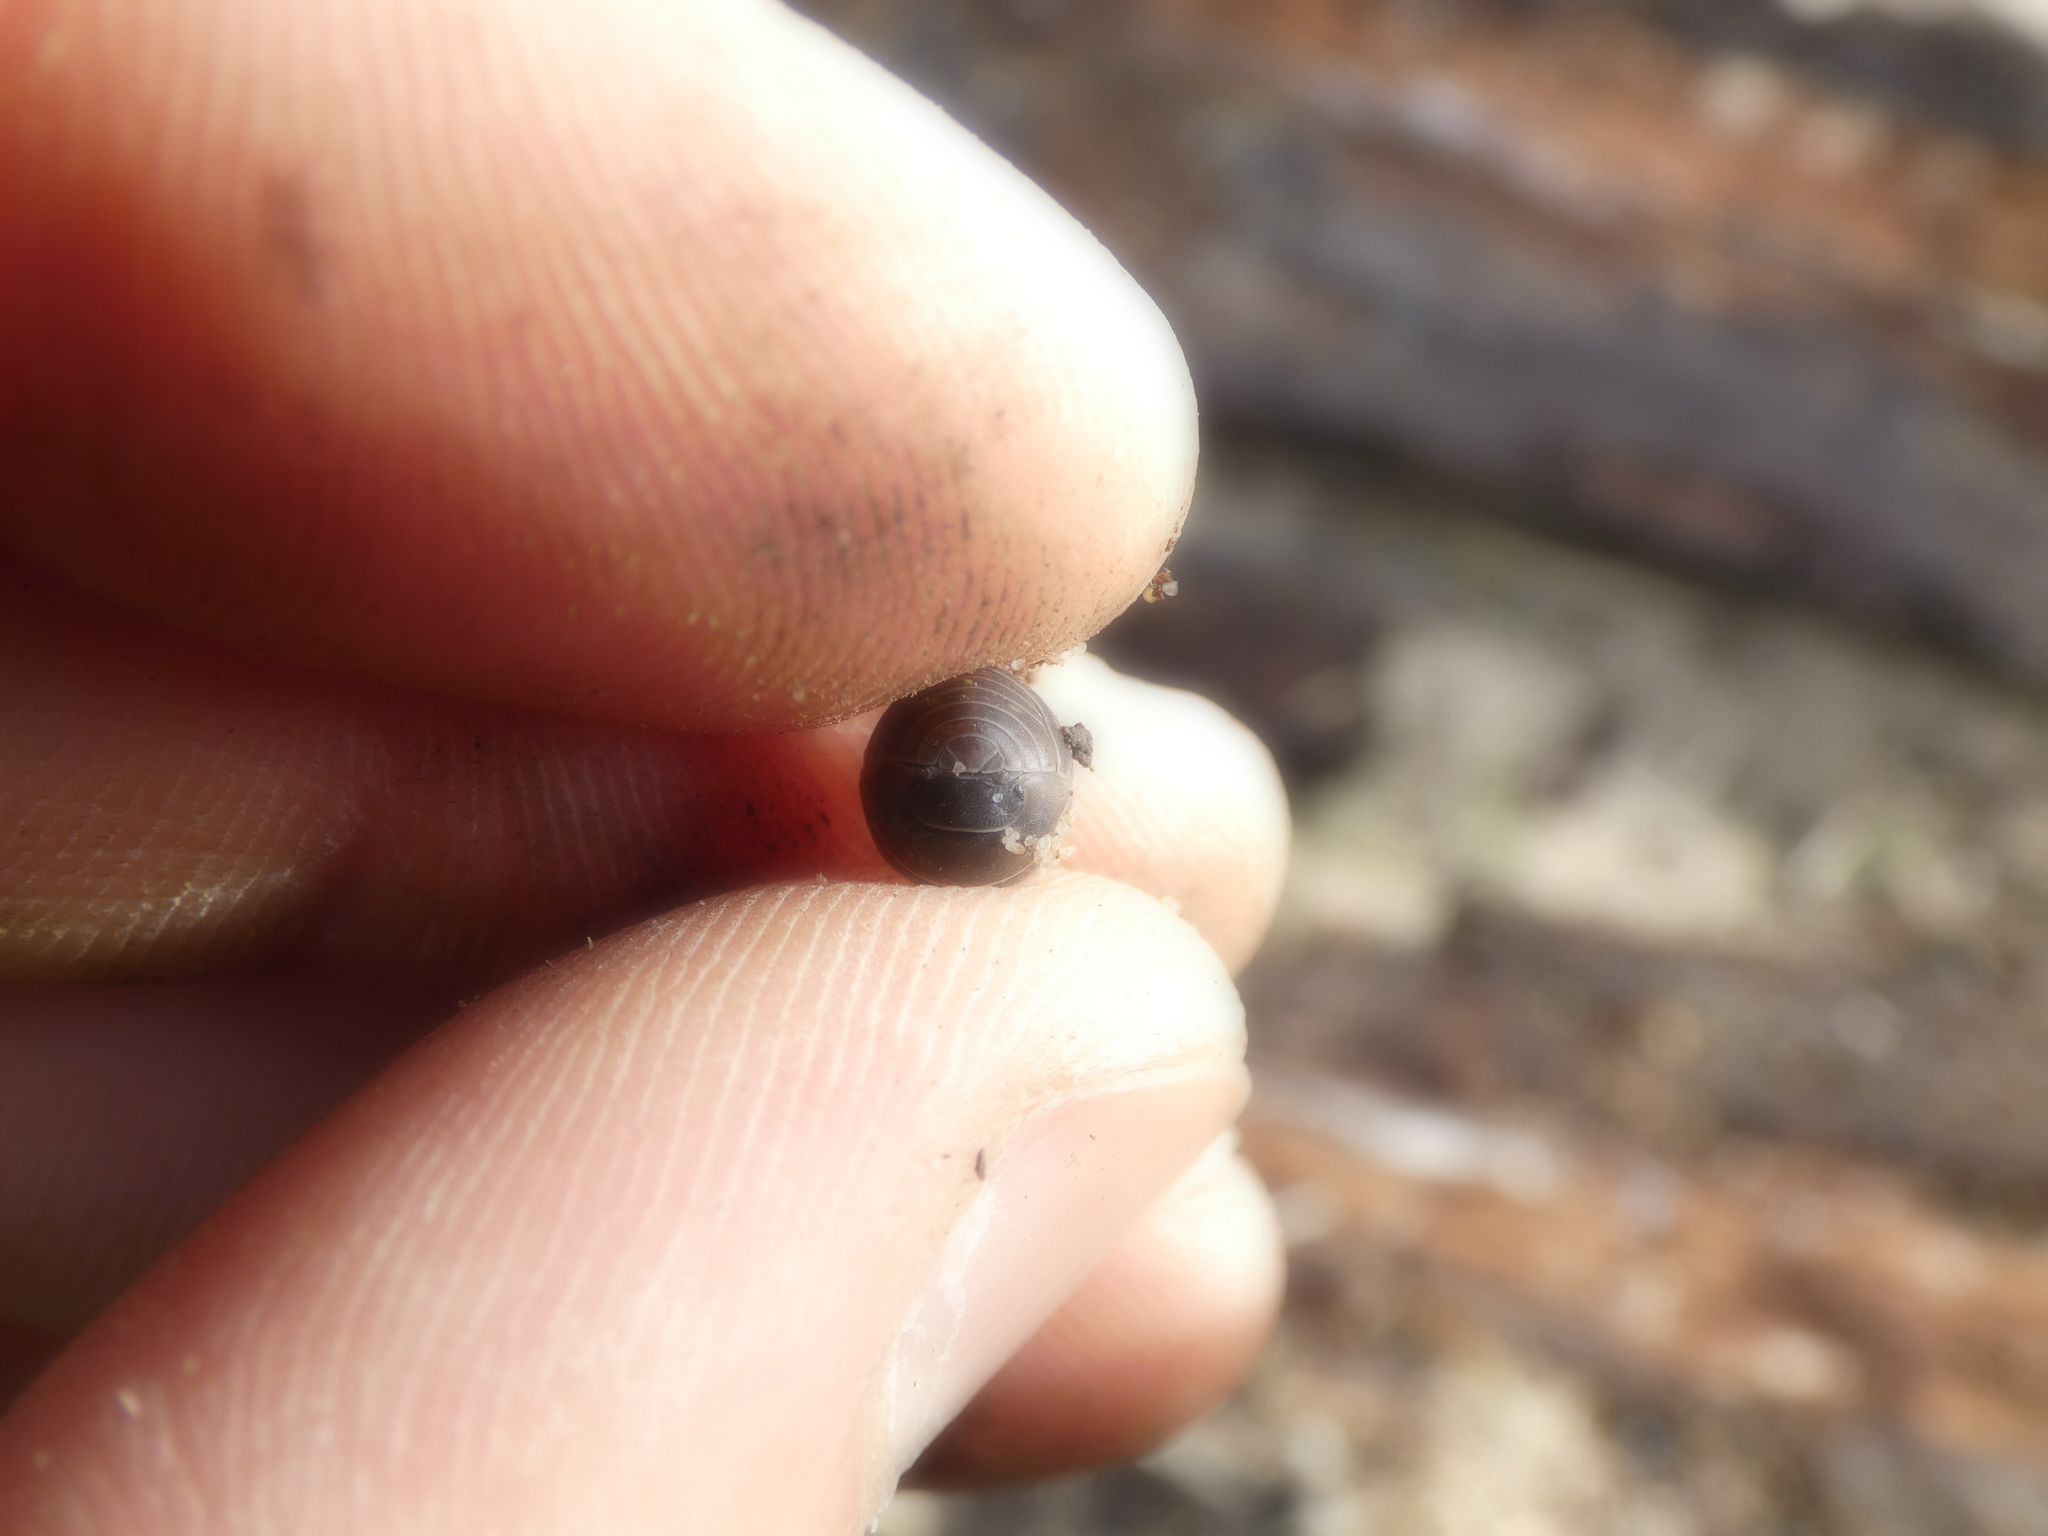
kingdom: Animalia
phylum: Arthropoda
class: Malacostraca
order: Isopoda
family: Armadillidiidae
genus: Armadillidium
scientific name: Armadillidium vulgare
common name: Common pill woodlouse
